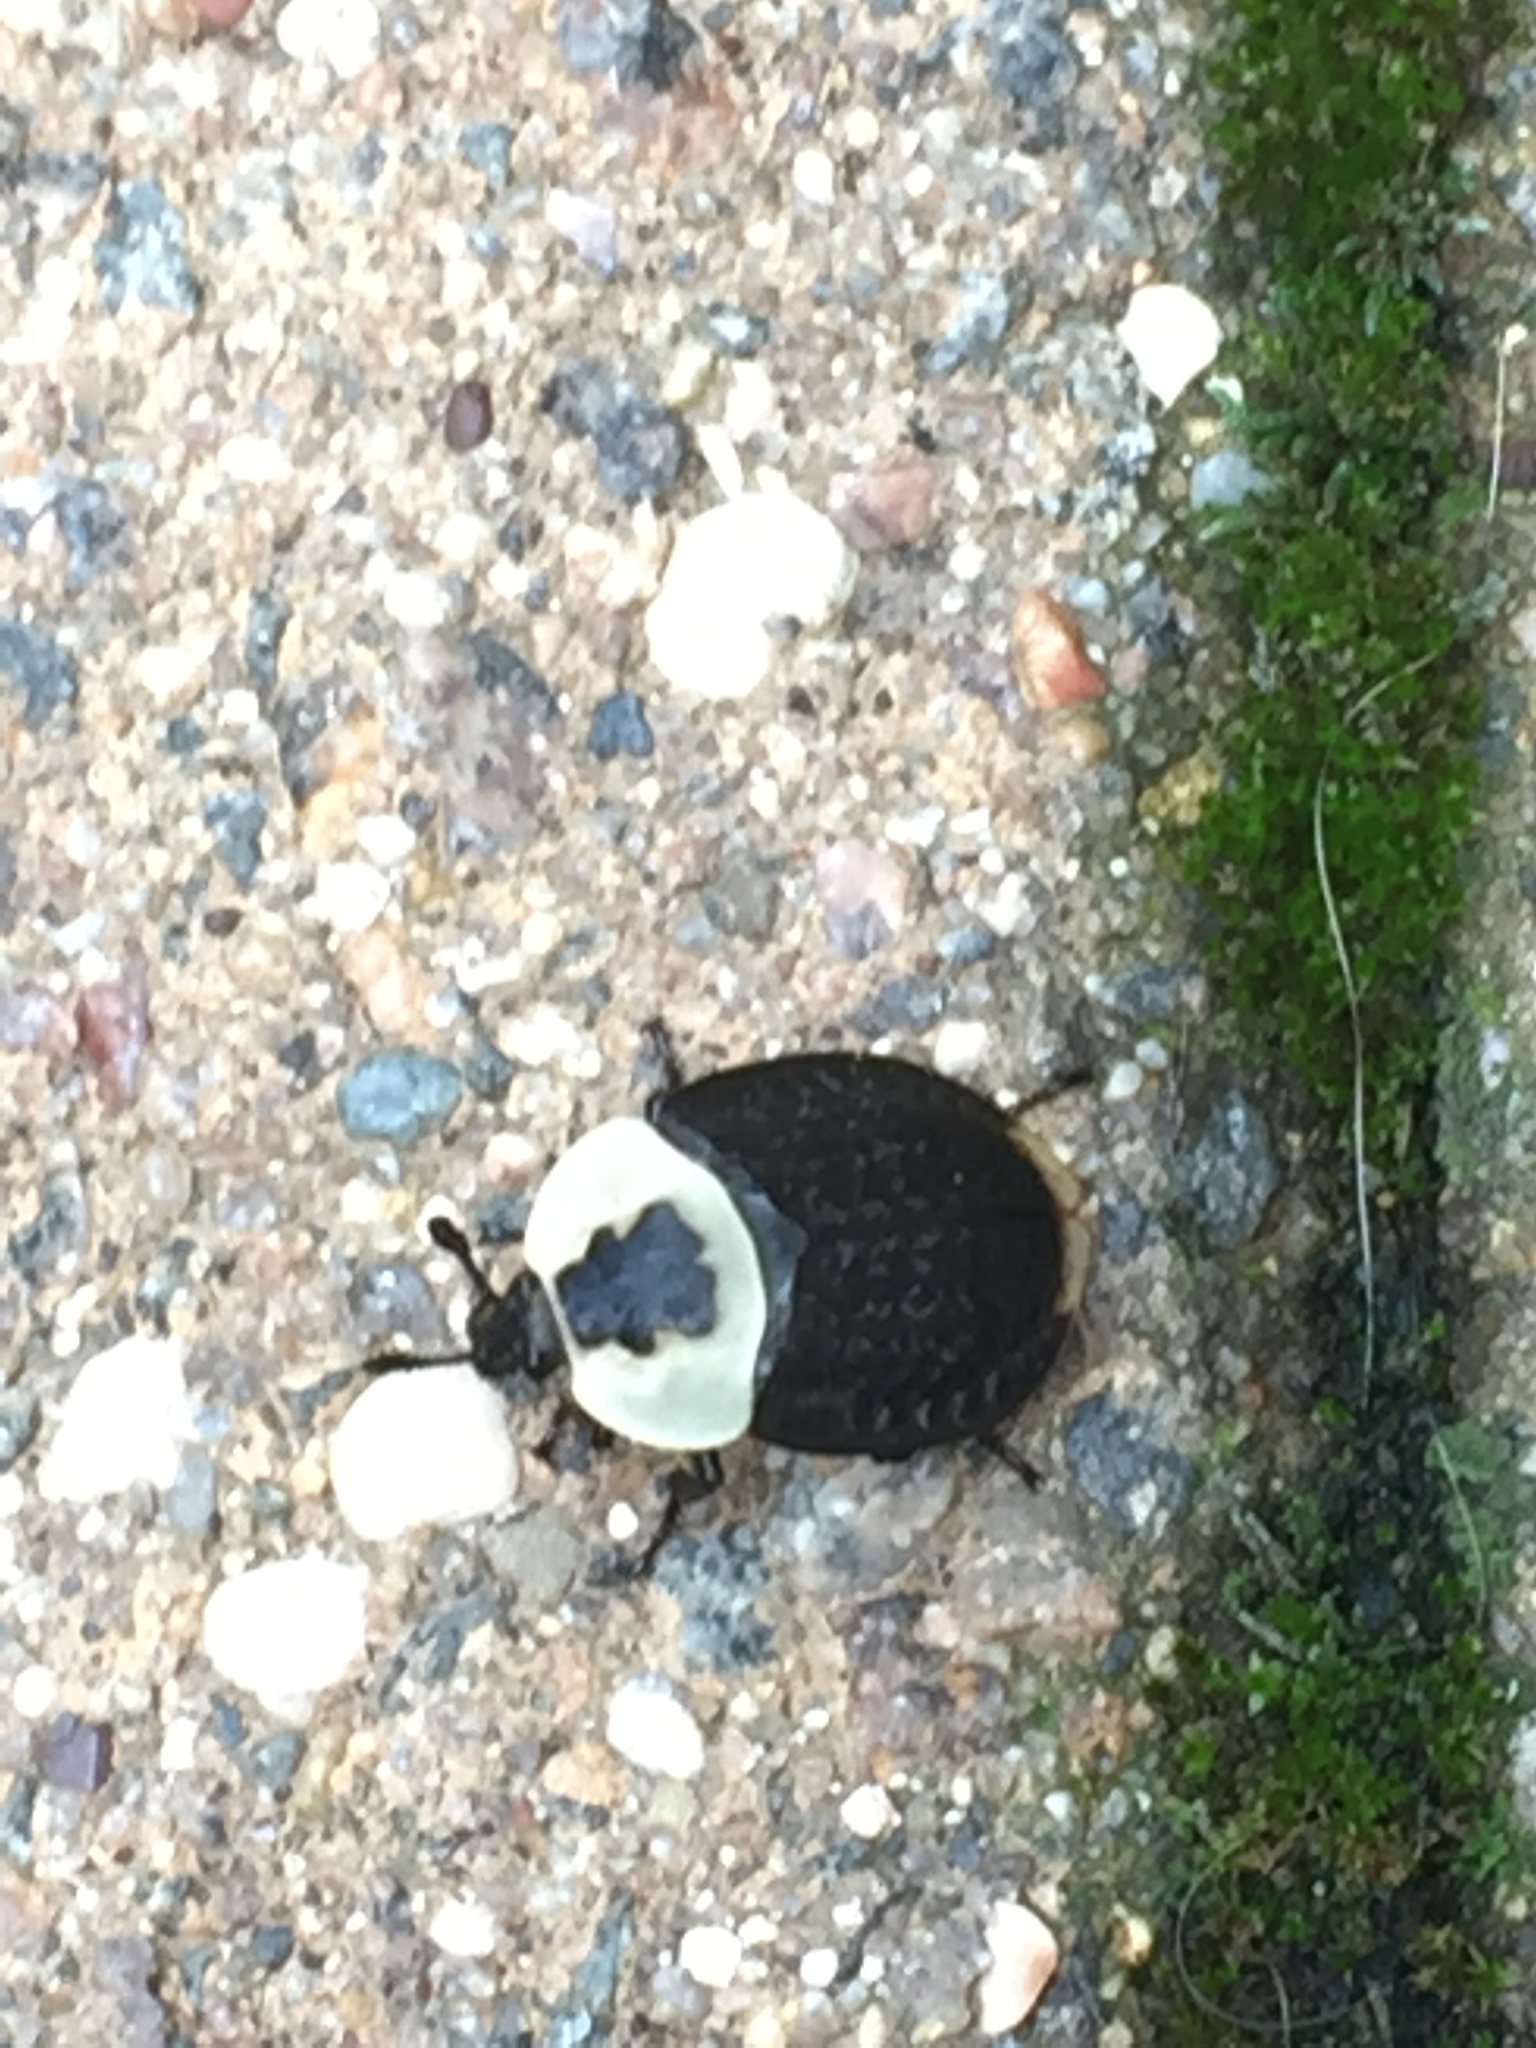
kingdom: Animalia
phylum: Arthropoda
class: Insecta
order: Coleoptera
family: Staphylinidae
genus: Necrophila
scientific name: Necrophila americana
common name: American carrion beetle
